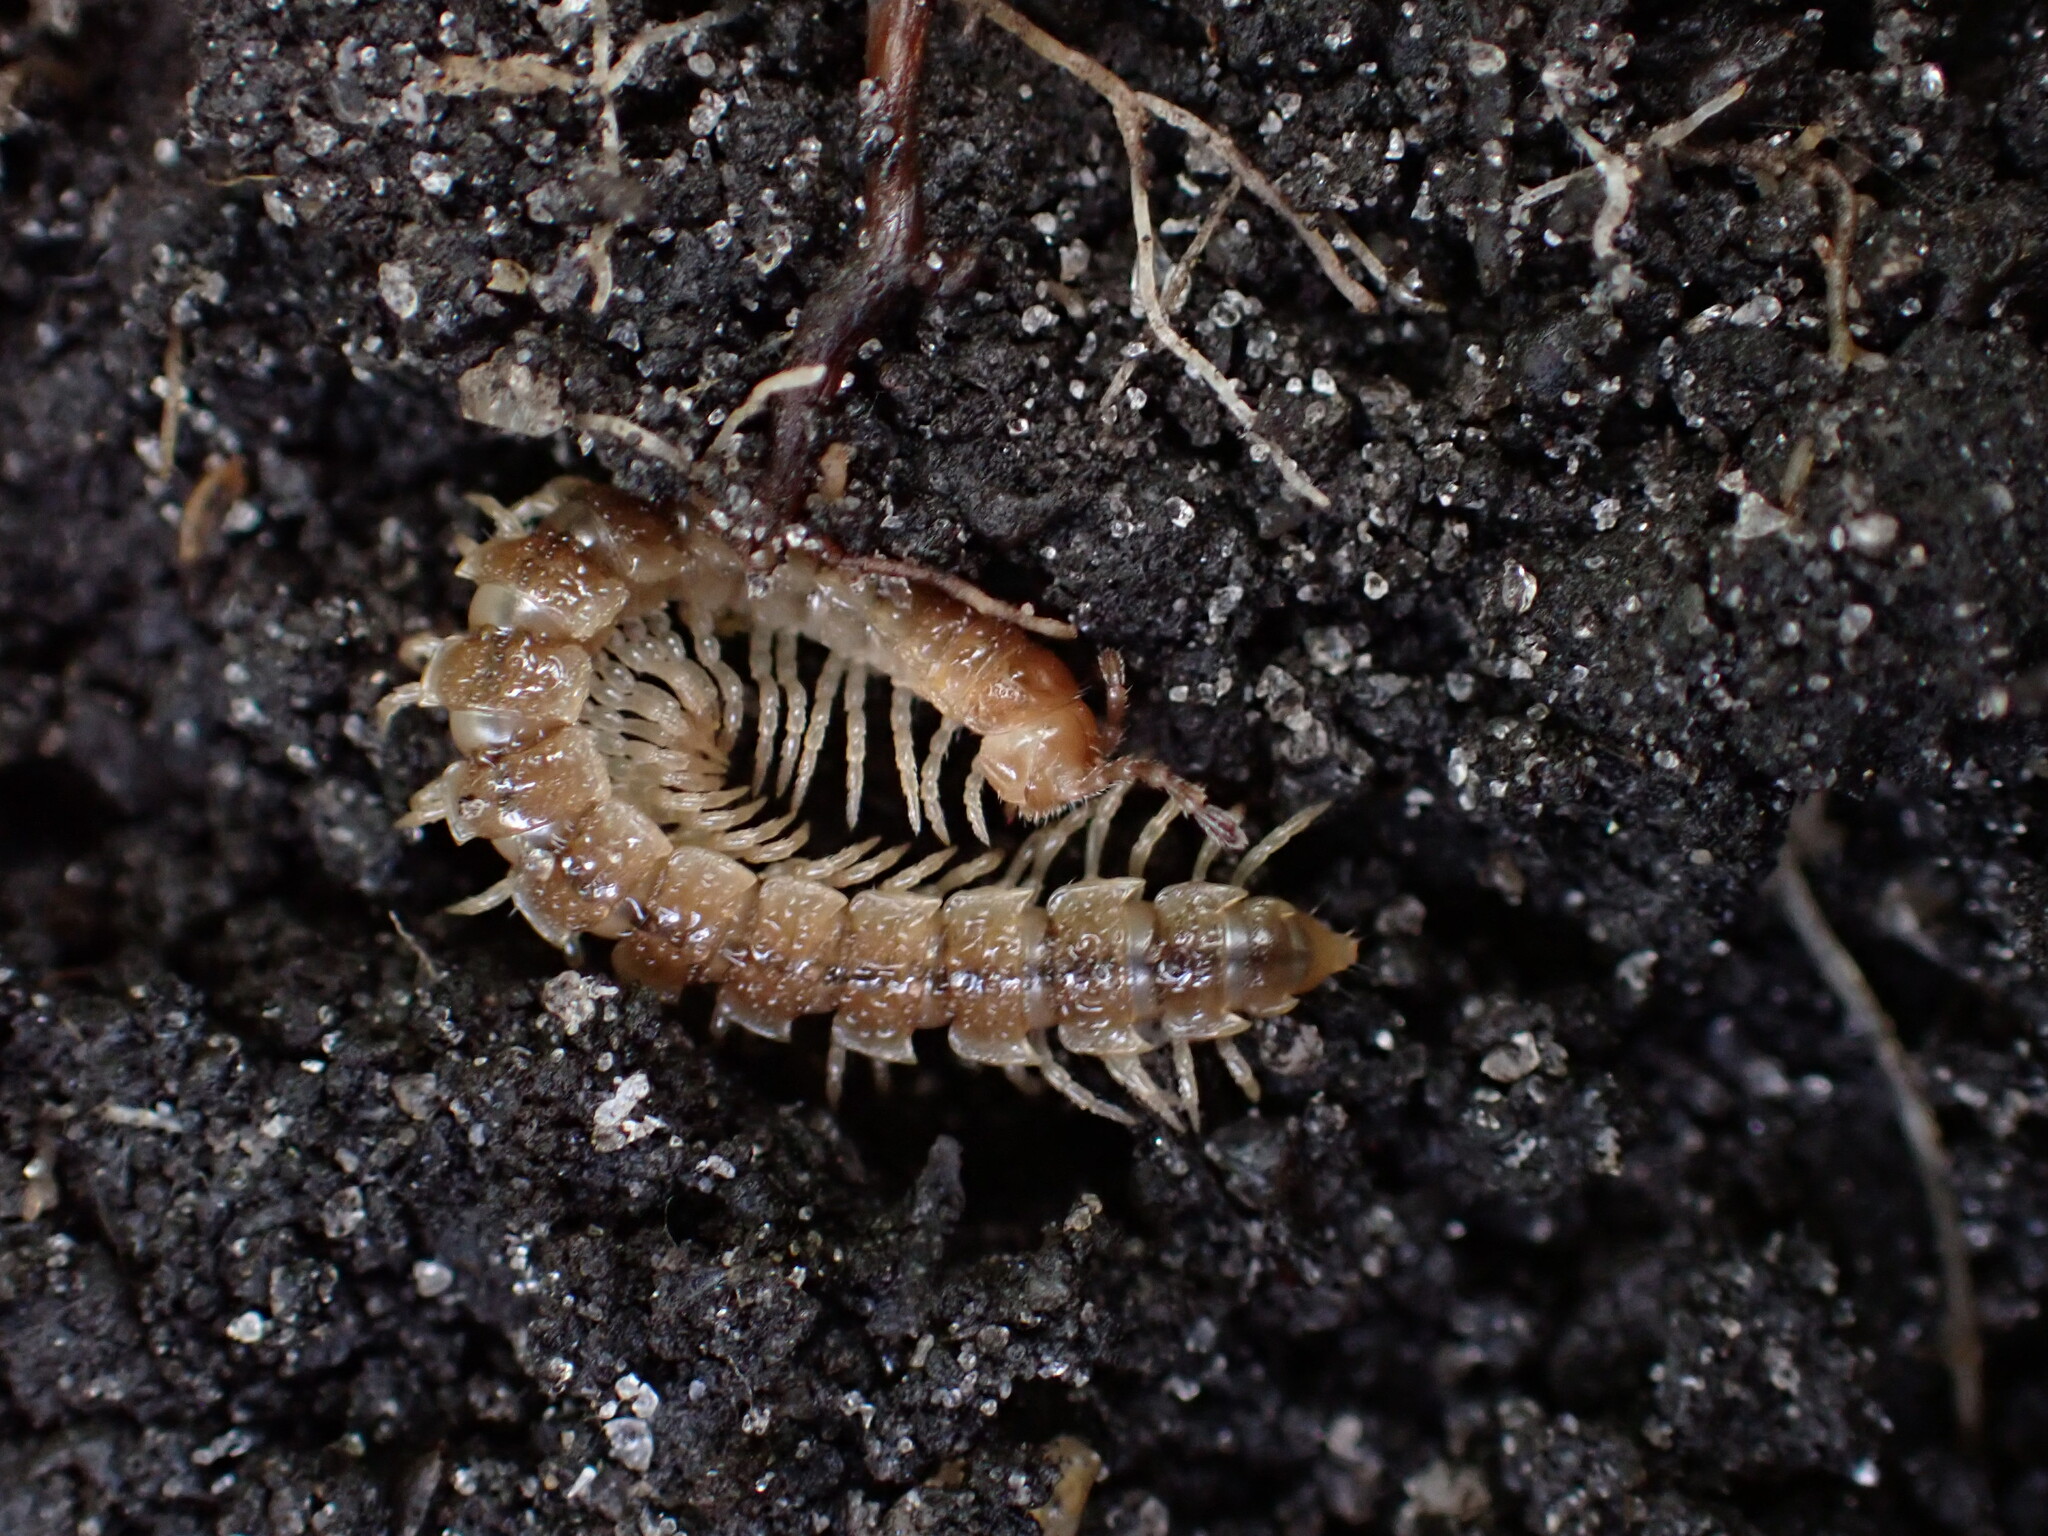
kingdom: Animalia
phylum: Arthropoda
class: Diplopoda
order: Polydesmida
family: Paradoxosomatidae
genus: Oxidus
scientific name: Oxidus gracilis
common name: Greenhouse millipede
